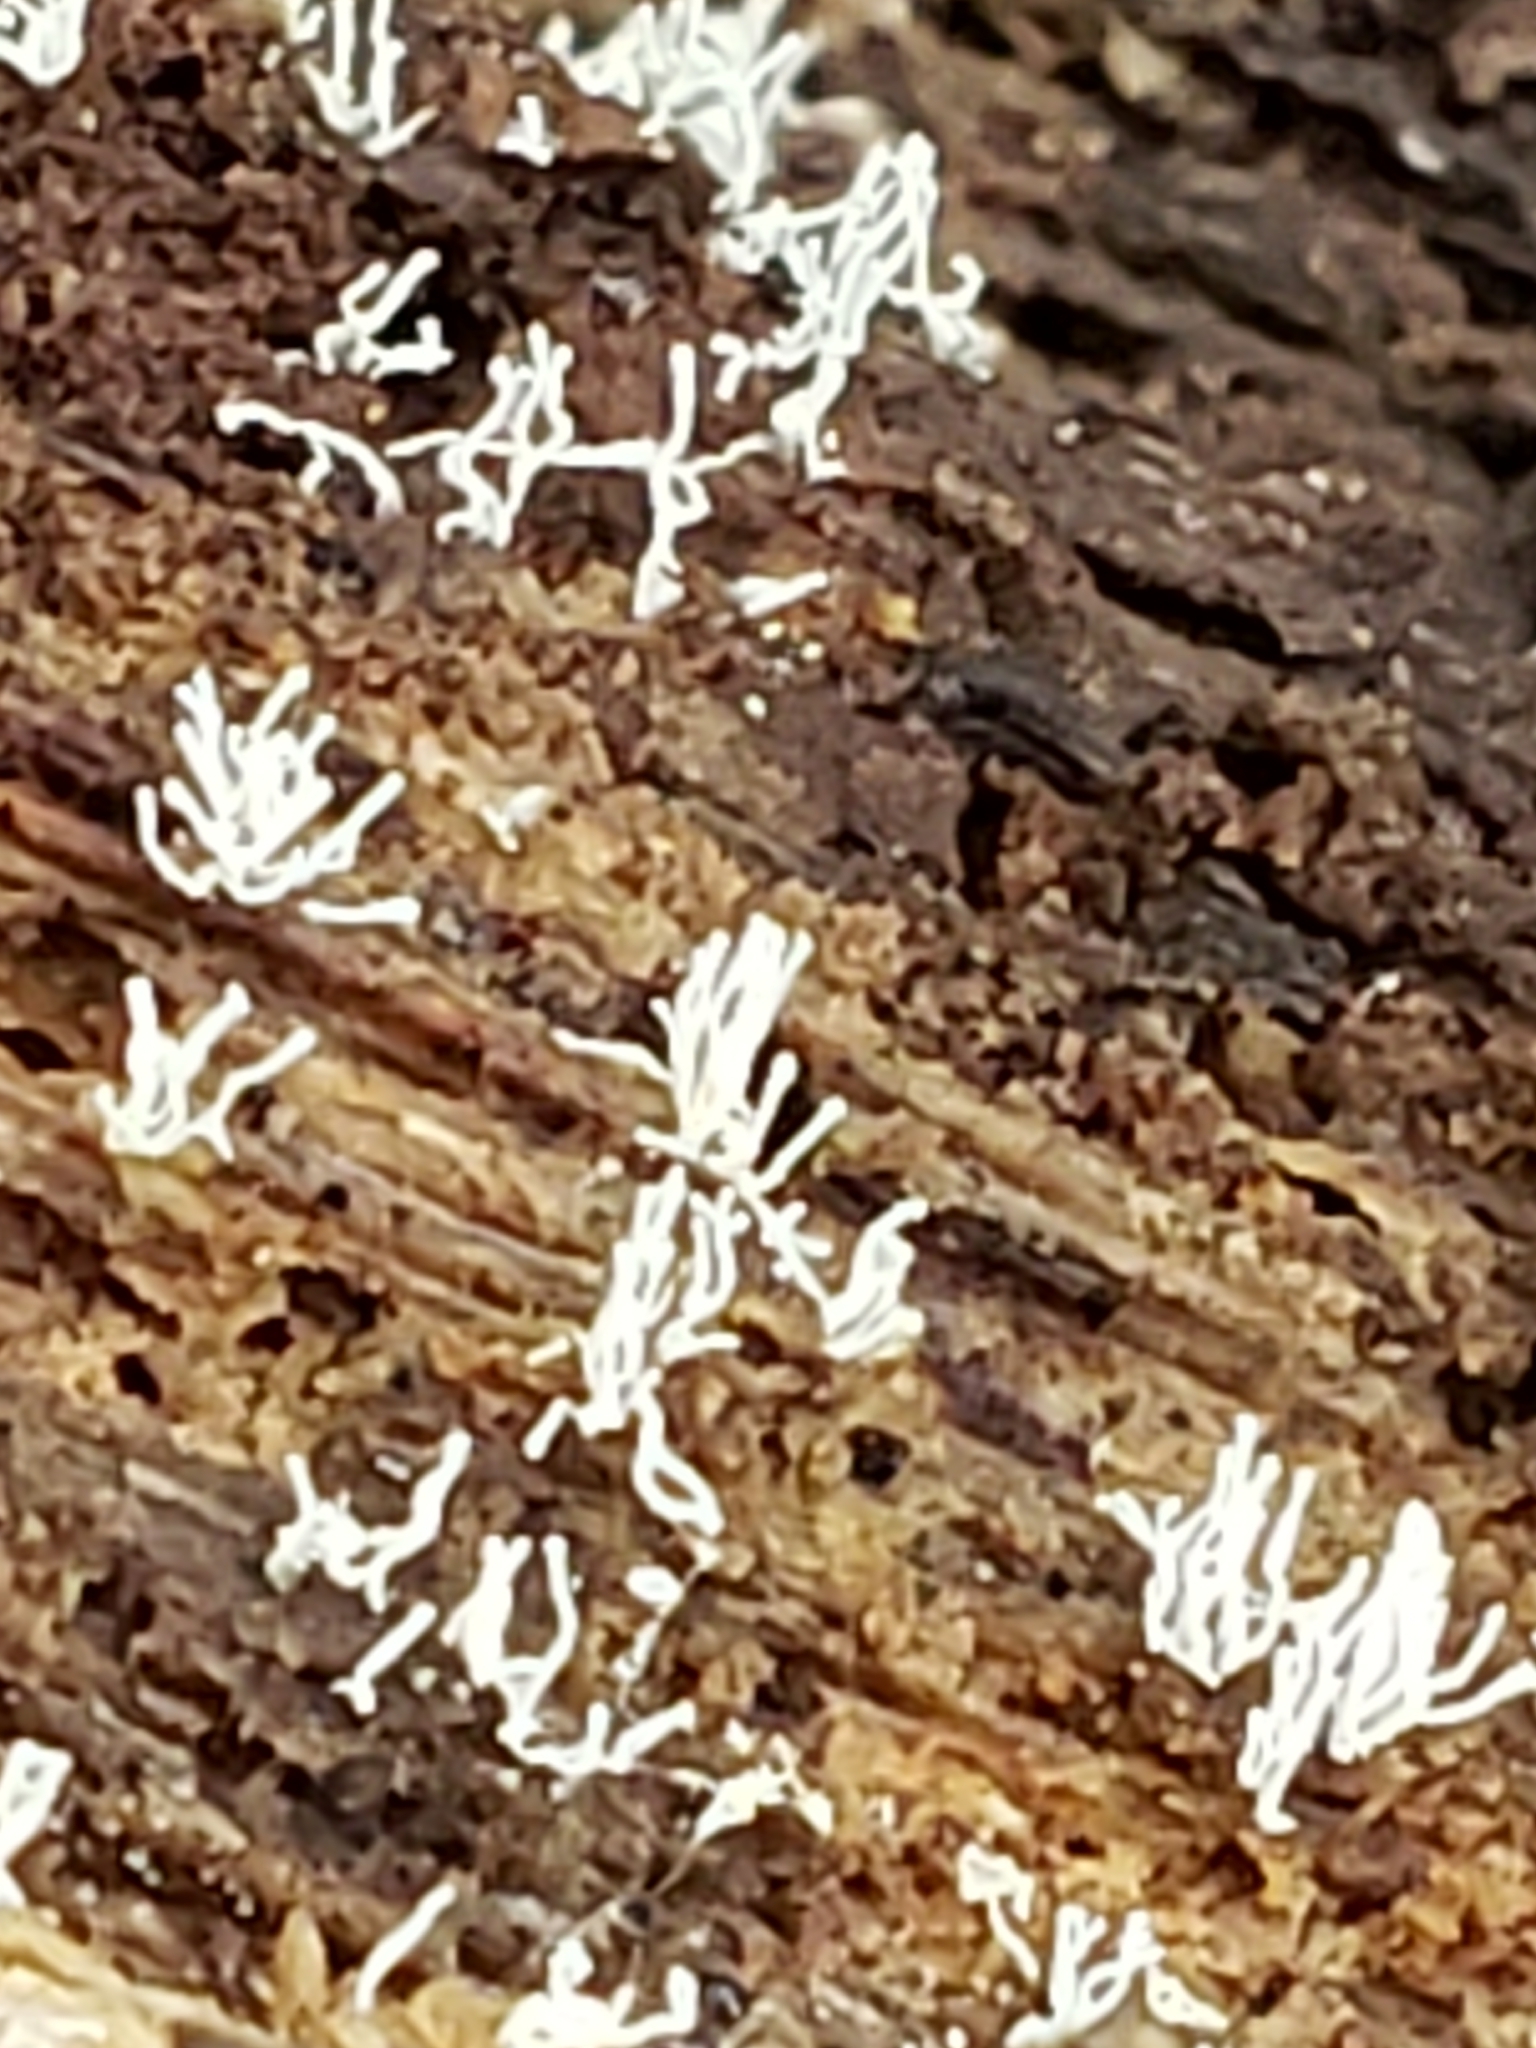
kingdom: Protozoa
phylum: Mycetozoa
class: Protosteliomycetes
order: Ceratiomyxales
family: Ceratiomyxaceae
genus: Ceratiomyxa
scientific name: Ceratiomyxa fruticulosa
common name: Honeycomb coral slime mold
